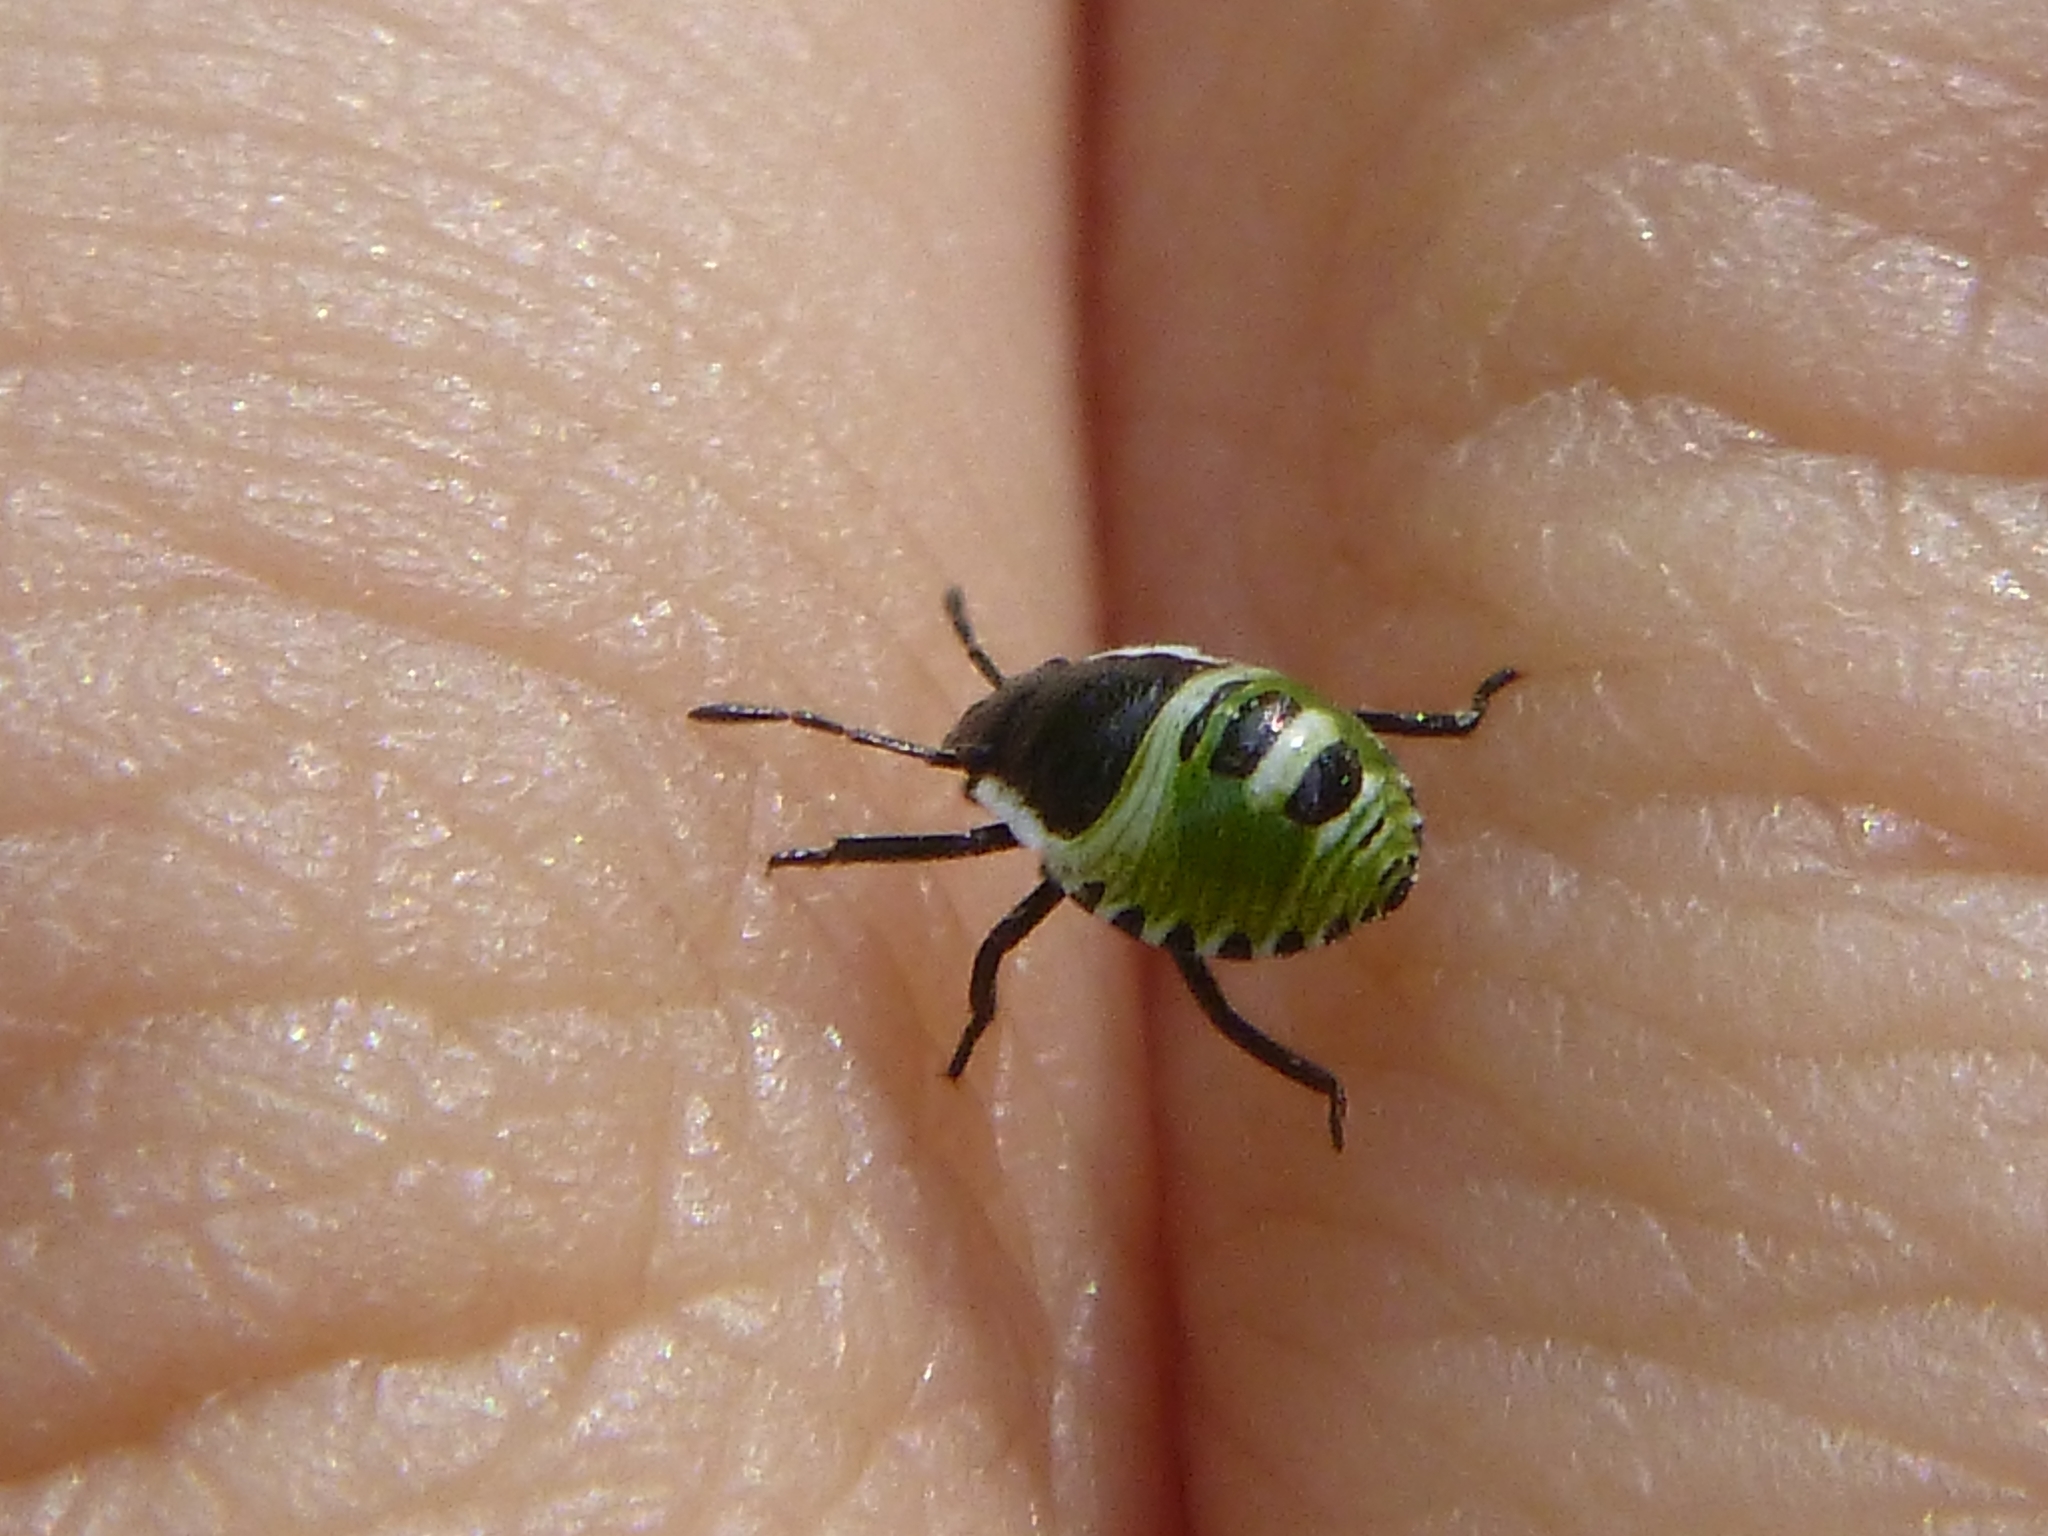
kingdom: Animalia
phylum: Arthropoda
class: Insecta
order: Hemiptera
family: Pentatomidae
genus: Palomena
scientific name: Palomena prasina
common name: Green shieldbug
